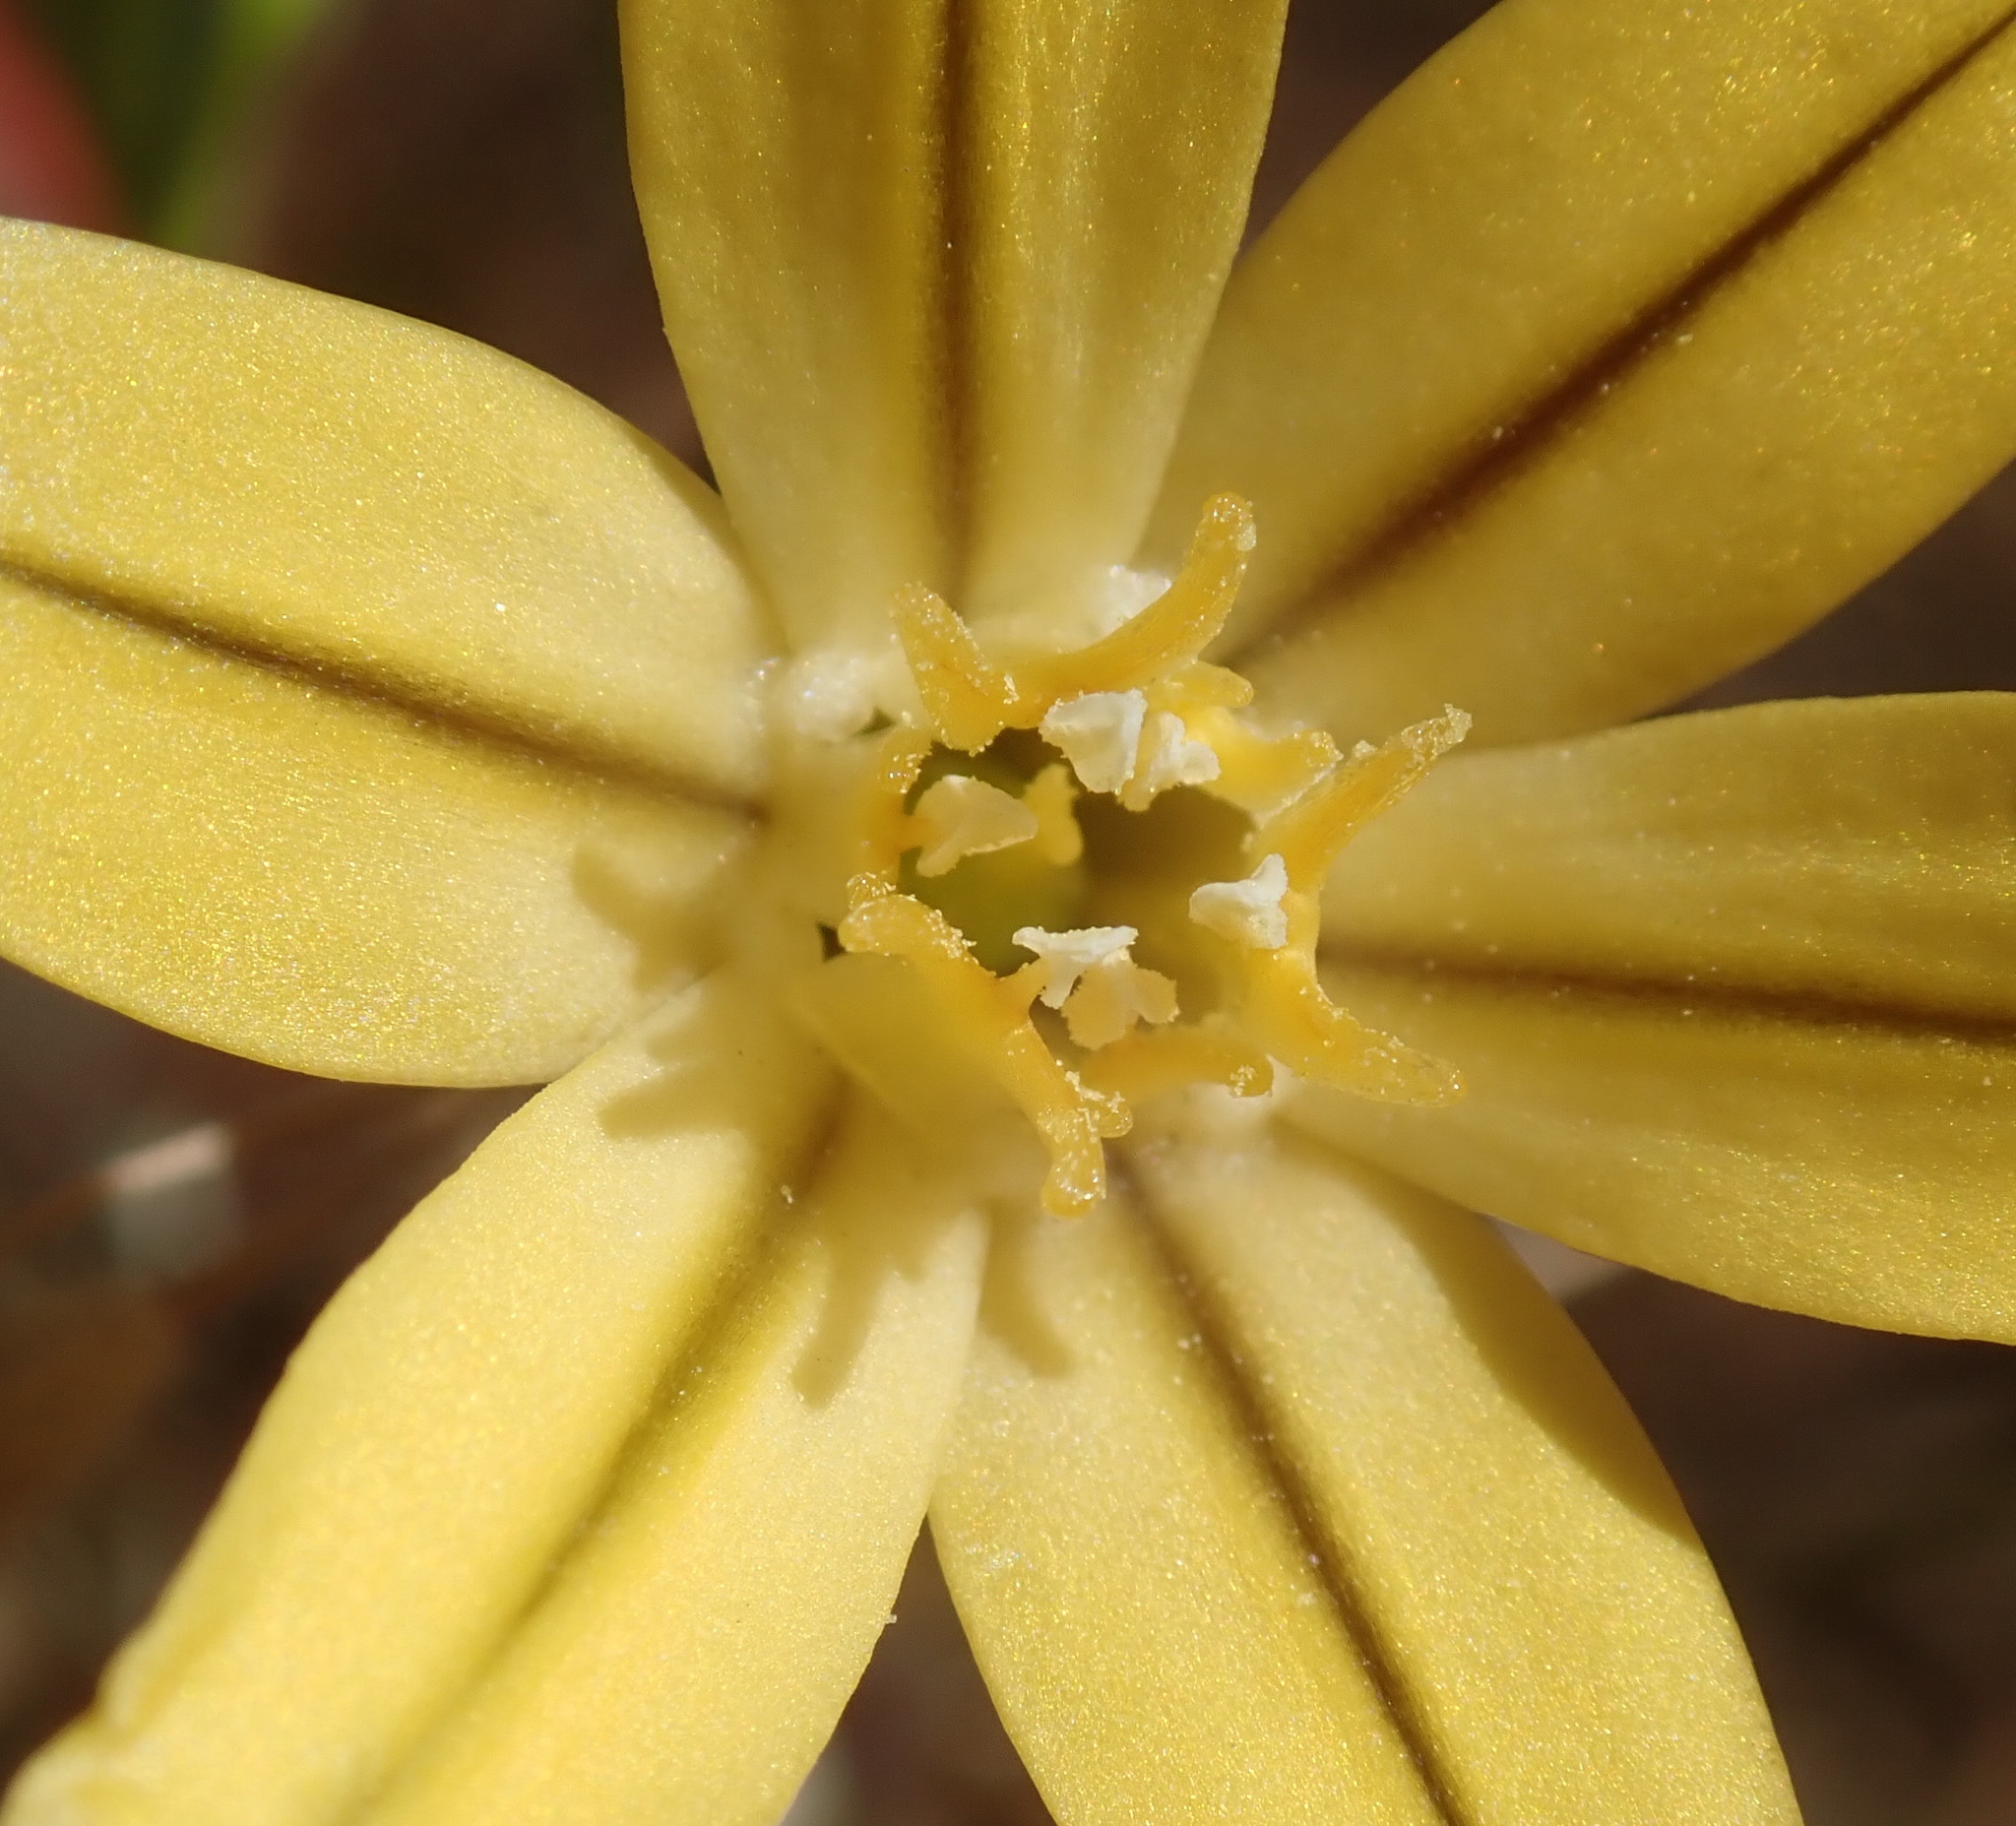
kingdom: Plantae
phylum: Tracheophyta
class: Liliopsida
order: Asparagales
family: Asparagaceae
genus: Triteleia
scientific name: Triteleia ixioides
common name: Yellow-brodiaea
